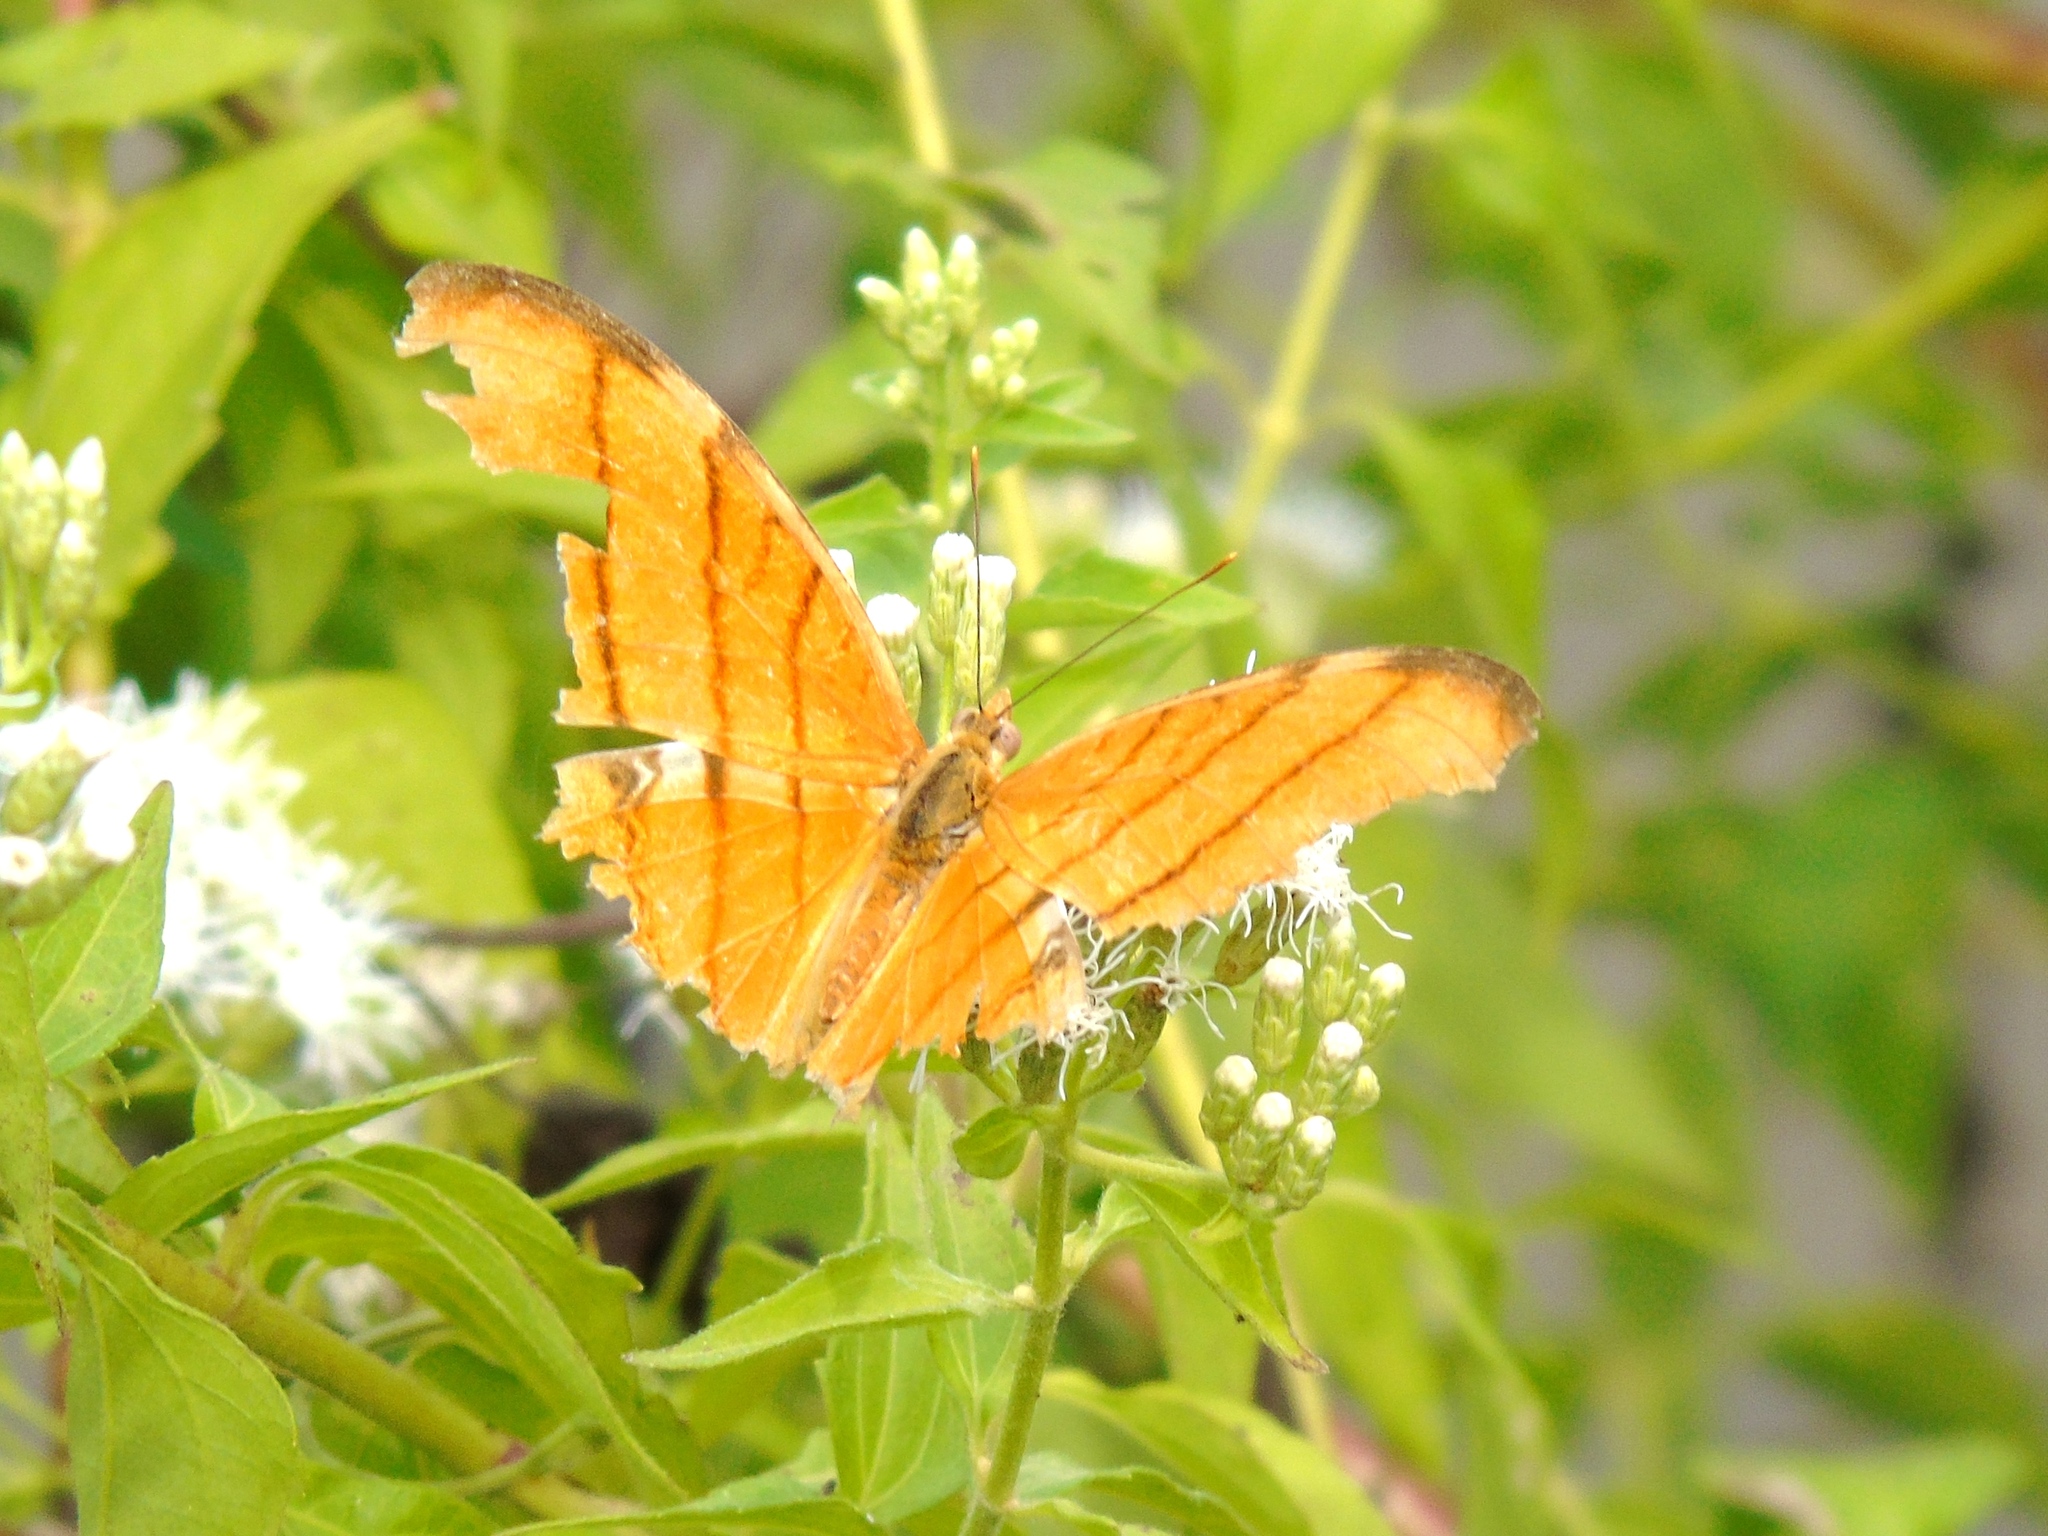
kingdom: Animalia
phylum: Arthropoda
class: Insecta
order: Lepidoptera
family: Nymphalidae
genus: Marpesia
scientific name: Marpesia petreus
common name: Red dagger wing
